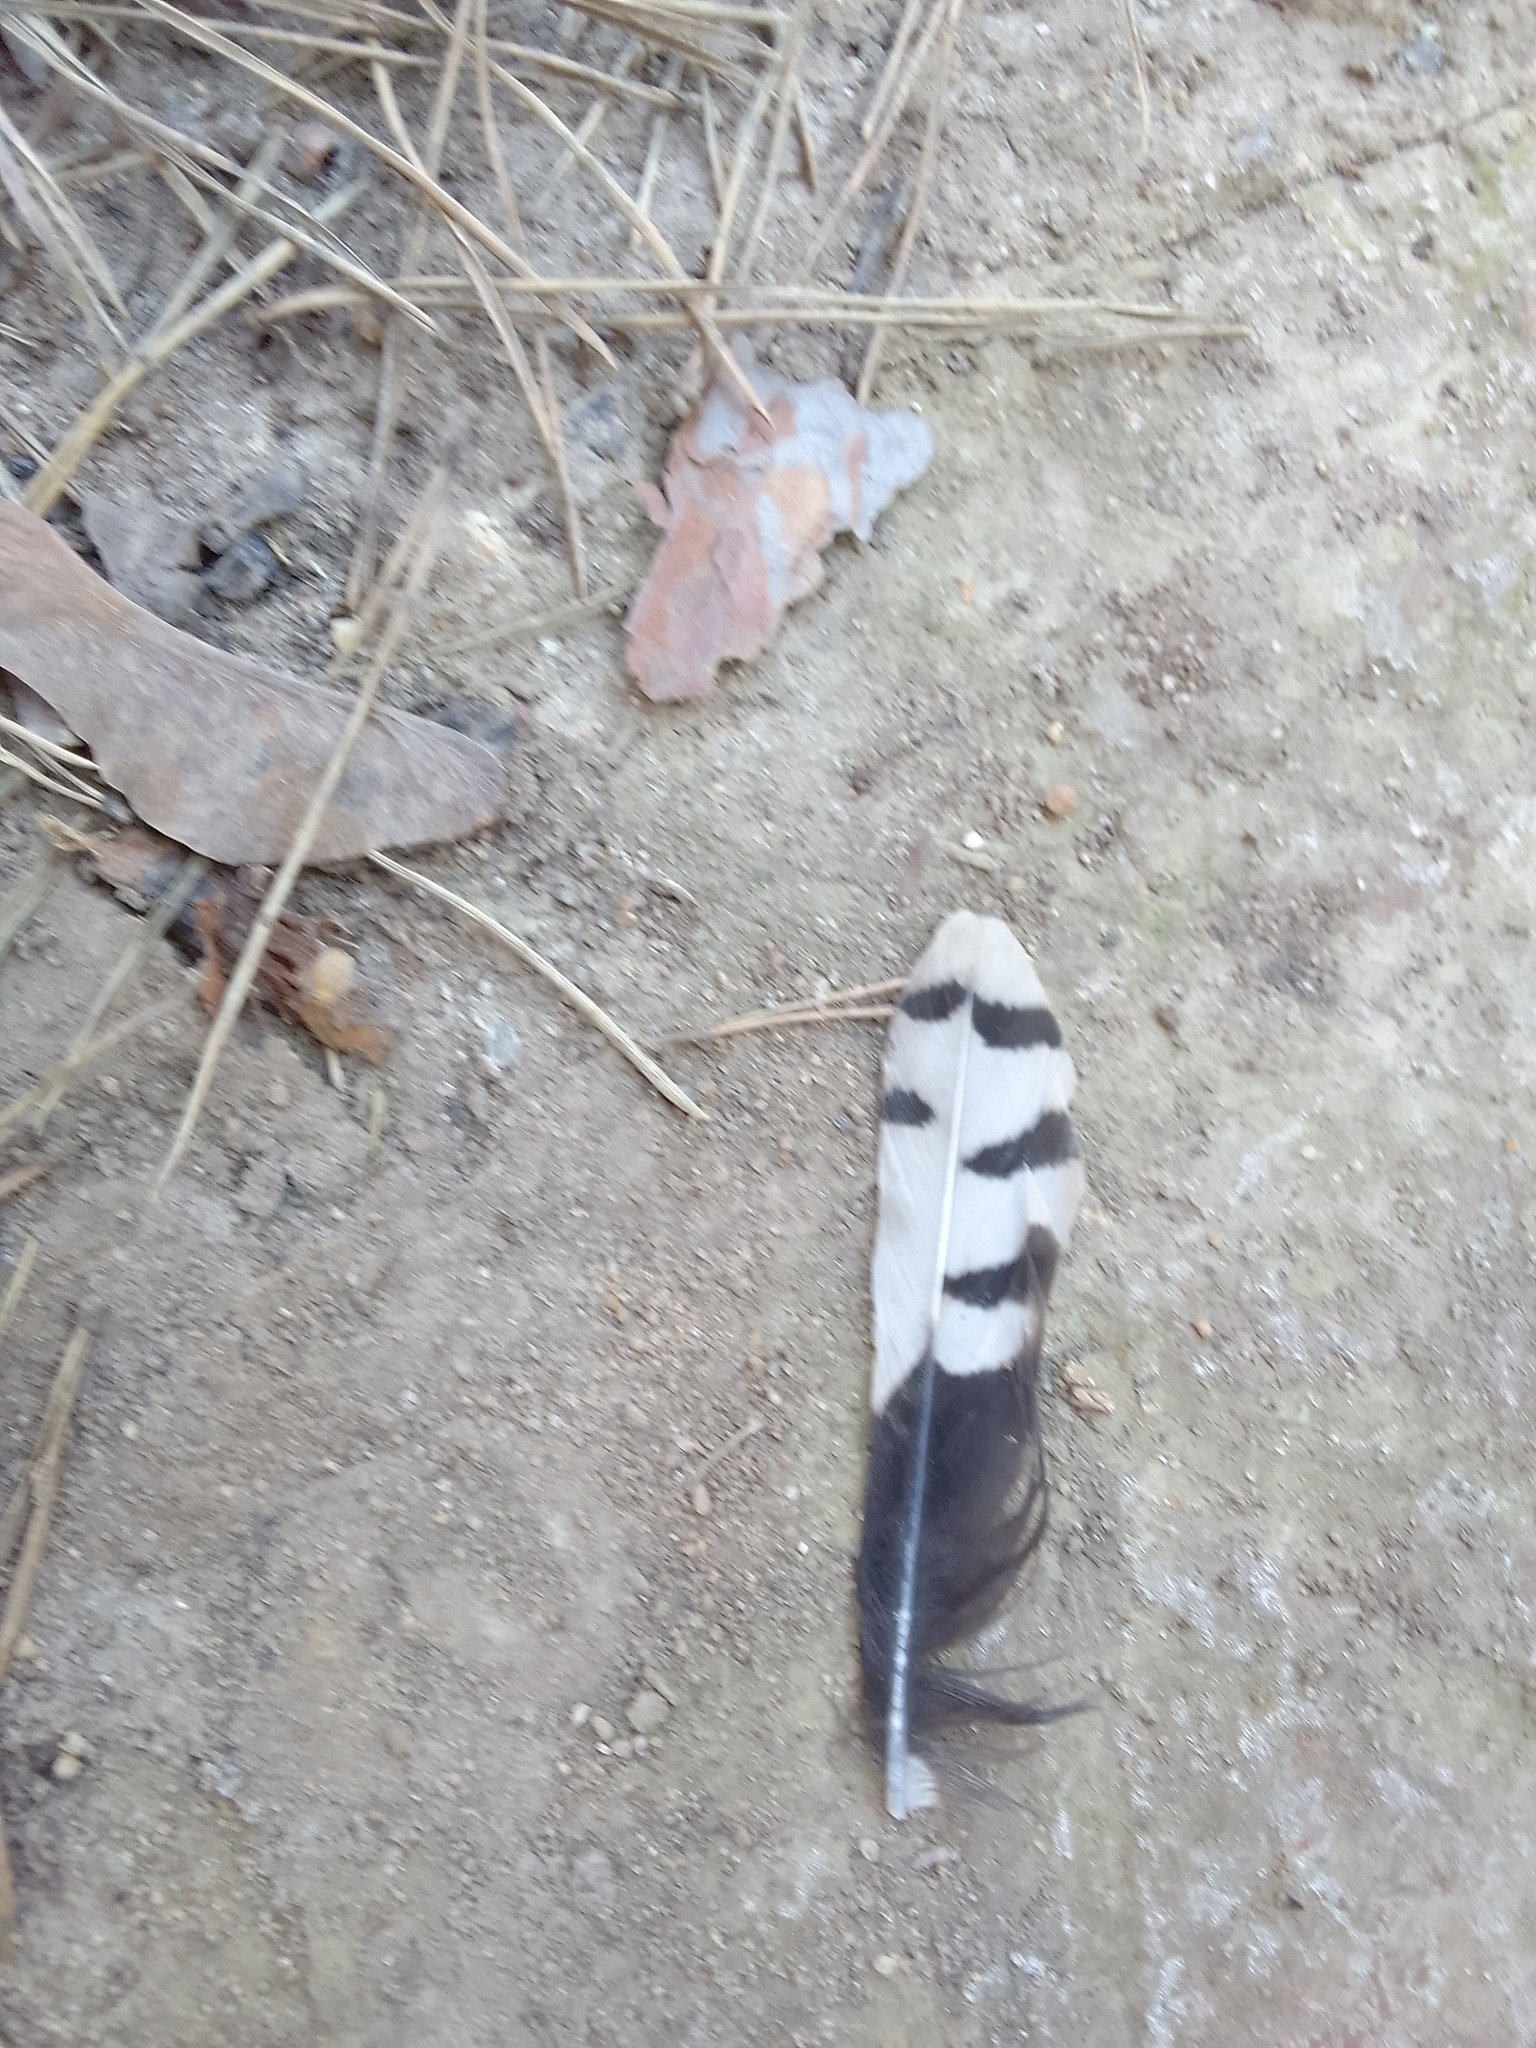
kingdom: Animalia
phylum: Chordata
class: Aves
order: Piciformes
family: Picidae
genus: Dendrocopos
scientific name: Dendrocopos major
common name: Great spotted woodpecker
